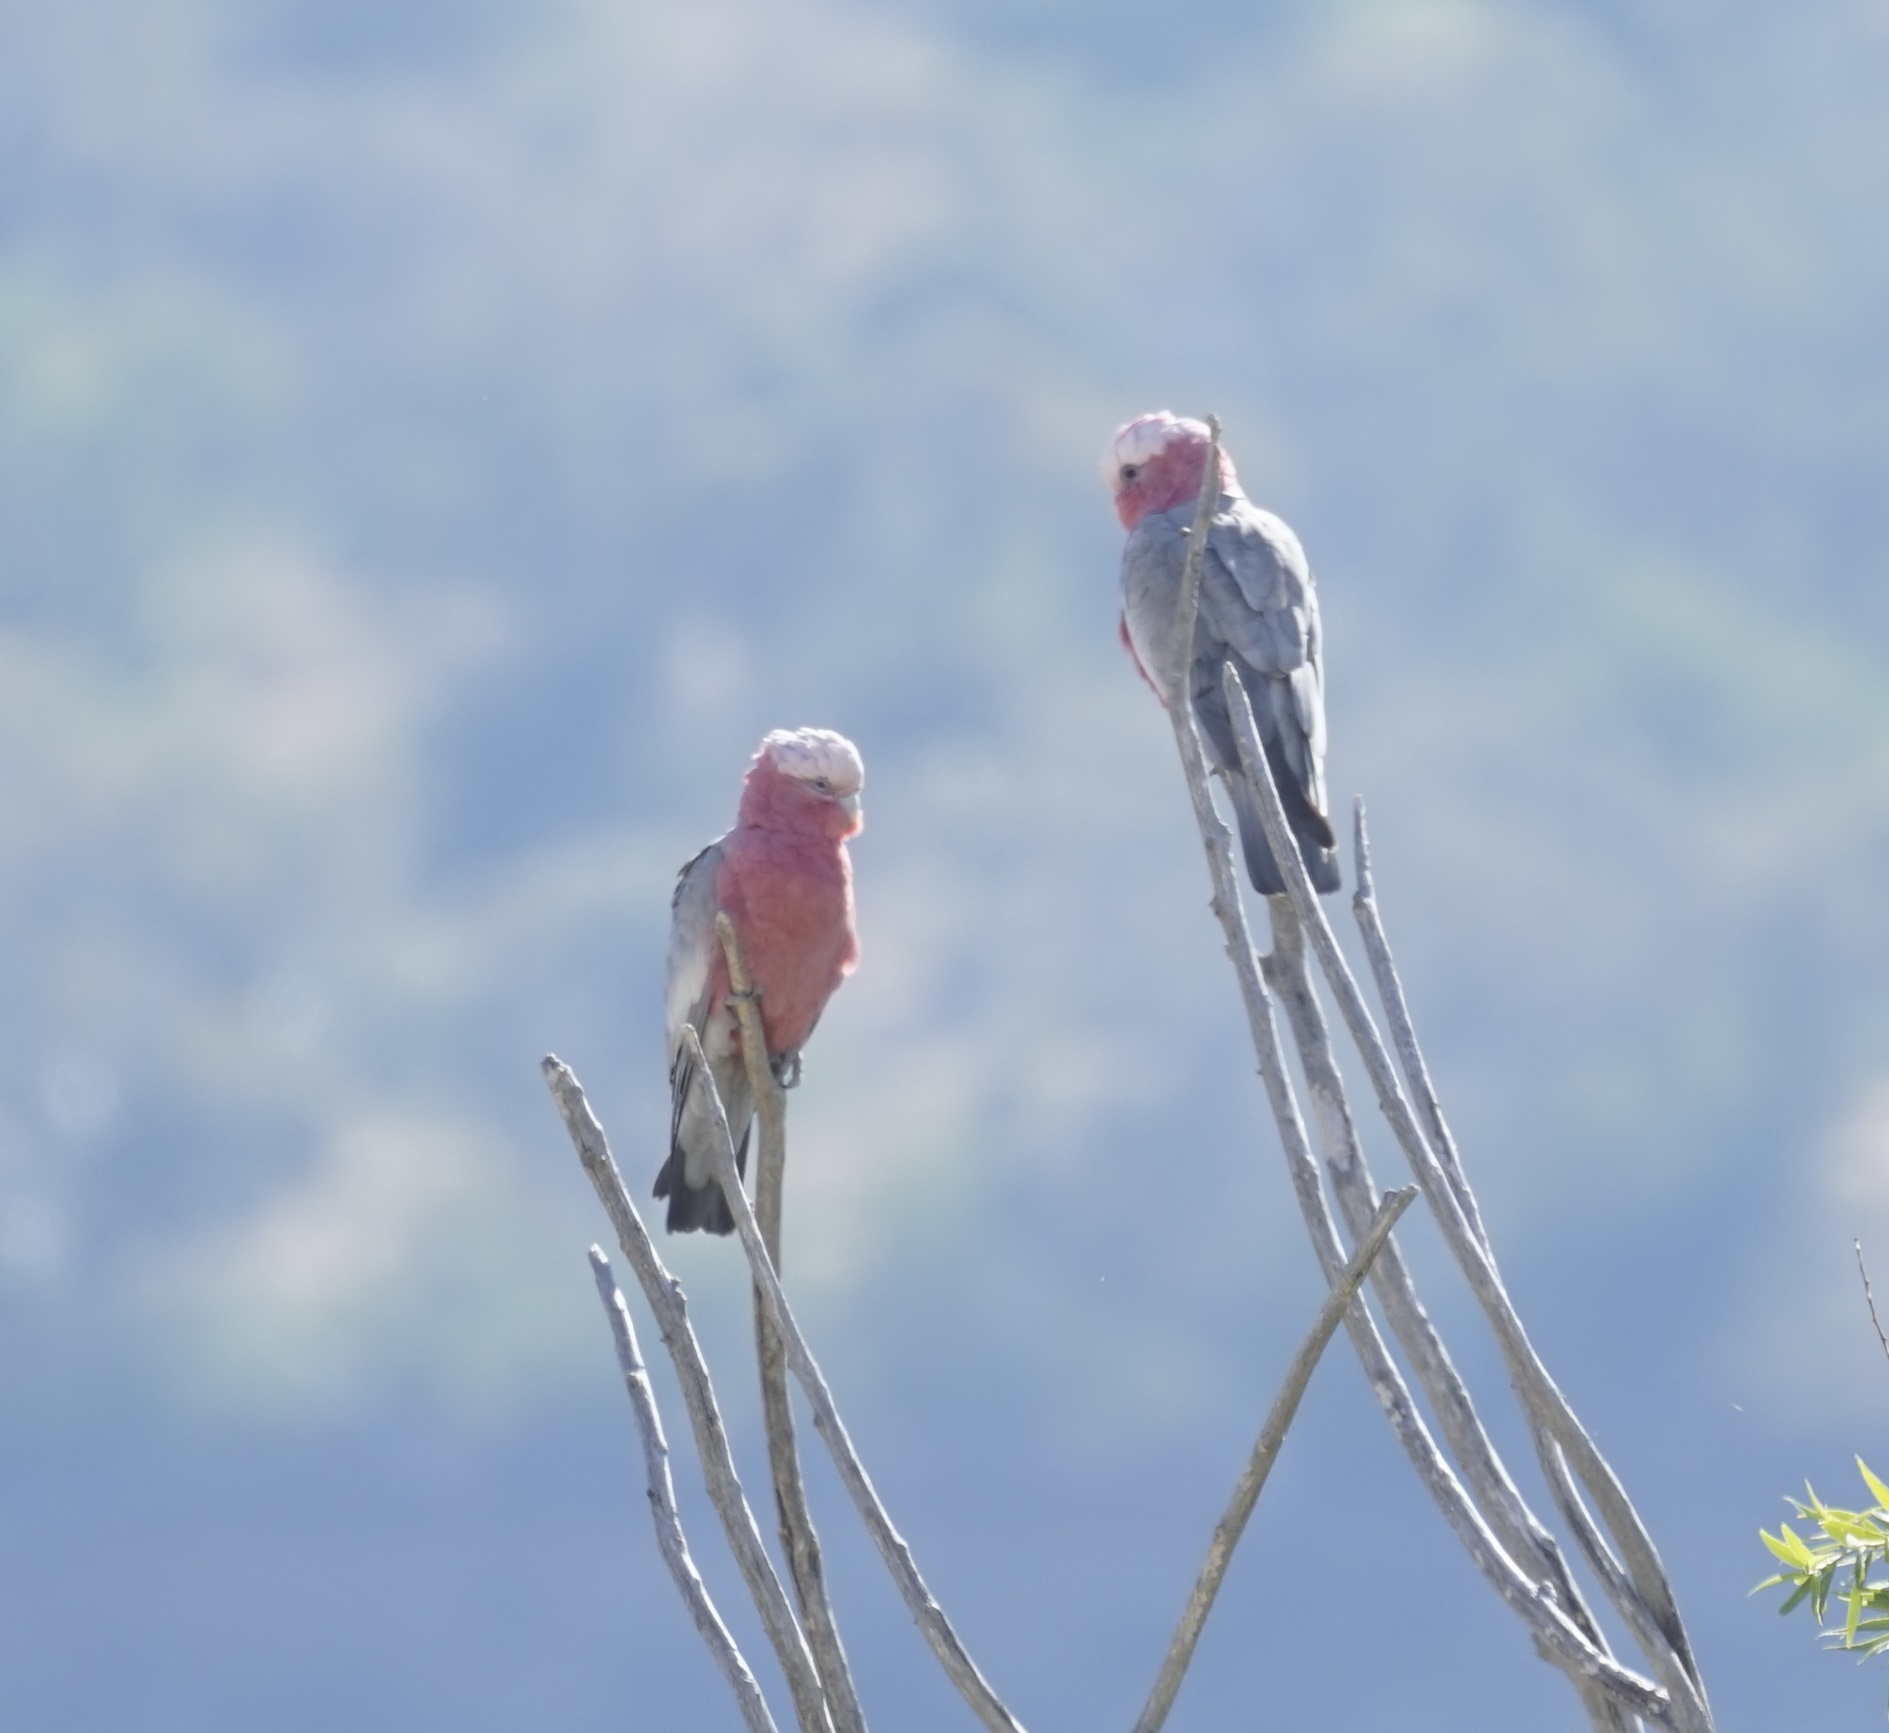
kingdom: Animalia
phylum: Chordata
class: Aves
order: Psittaciformes
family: Psittacidae
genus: Eolophus
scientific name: Eolophus roseicapilla
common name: Galah
